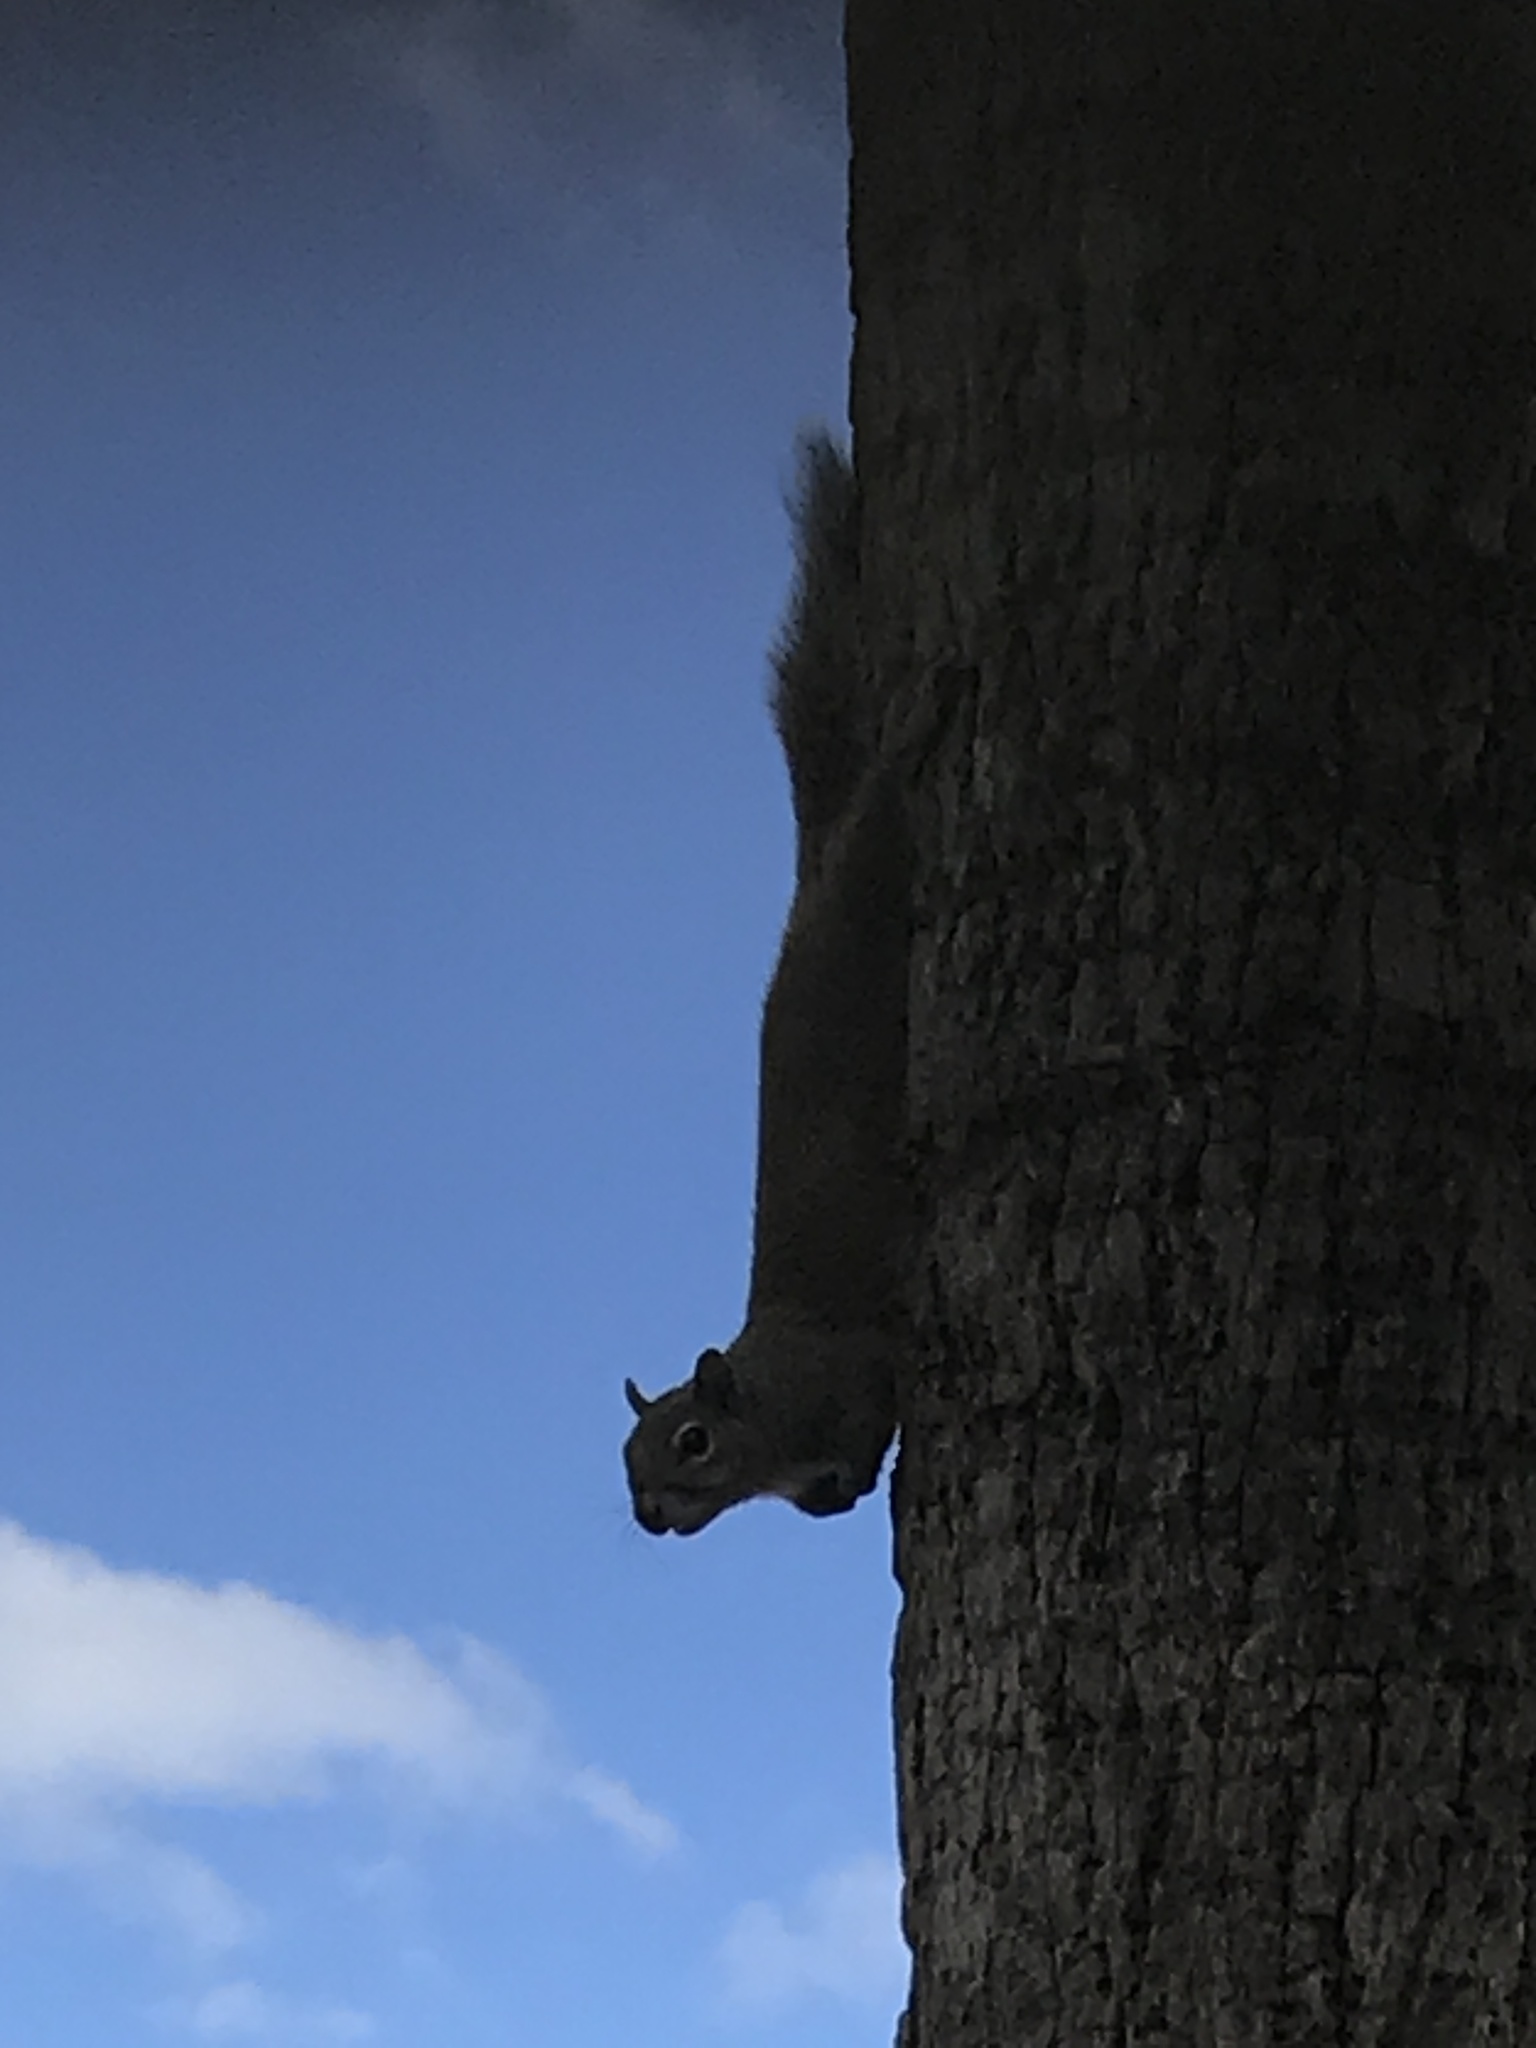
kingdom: Animalia
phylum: Chordata
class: Mammalia
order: Rodentia
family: Sciuridae
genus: Sciurus
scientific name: Sciurus carolinensis
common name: Eastern gray squirrel
